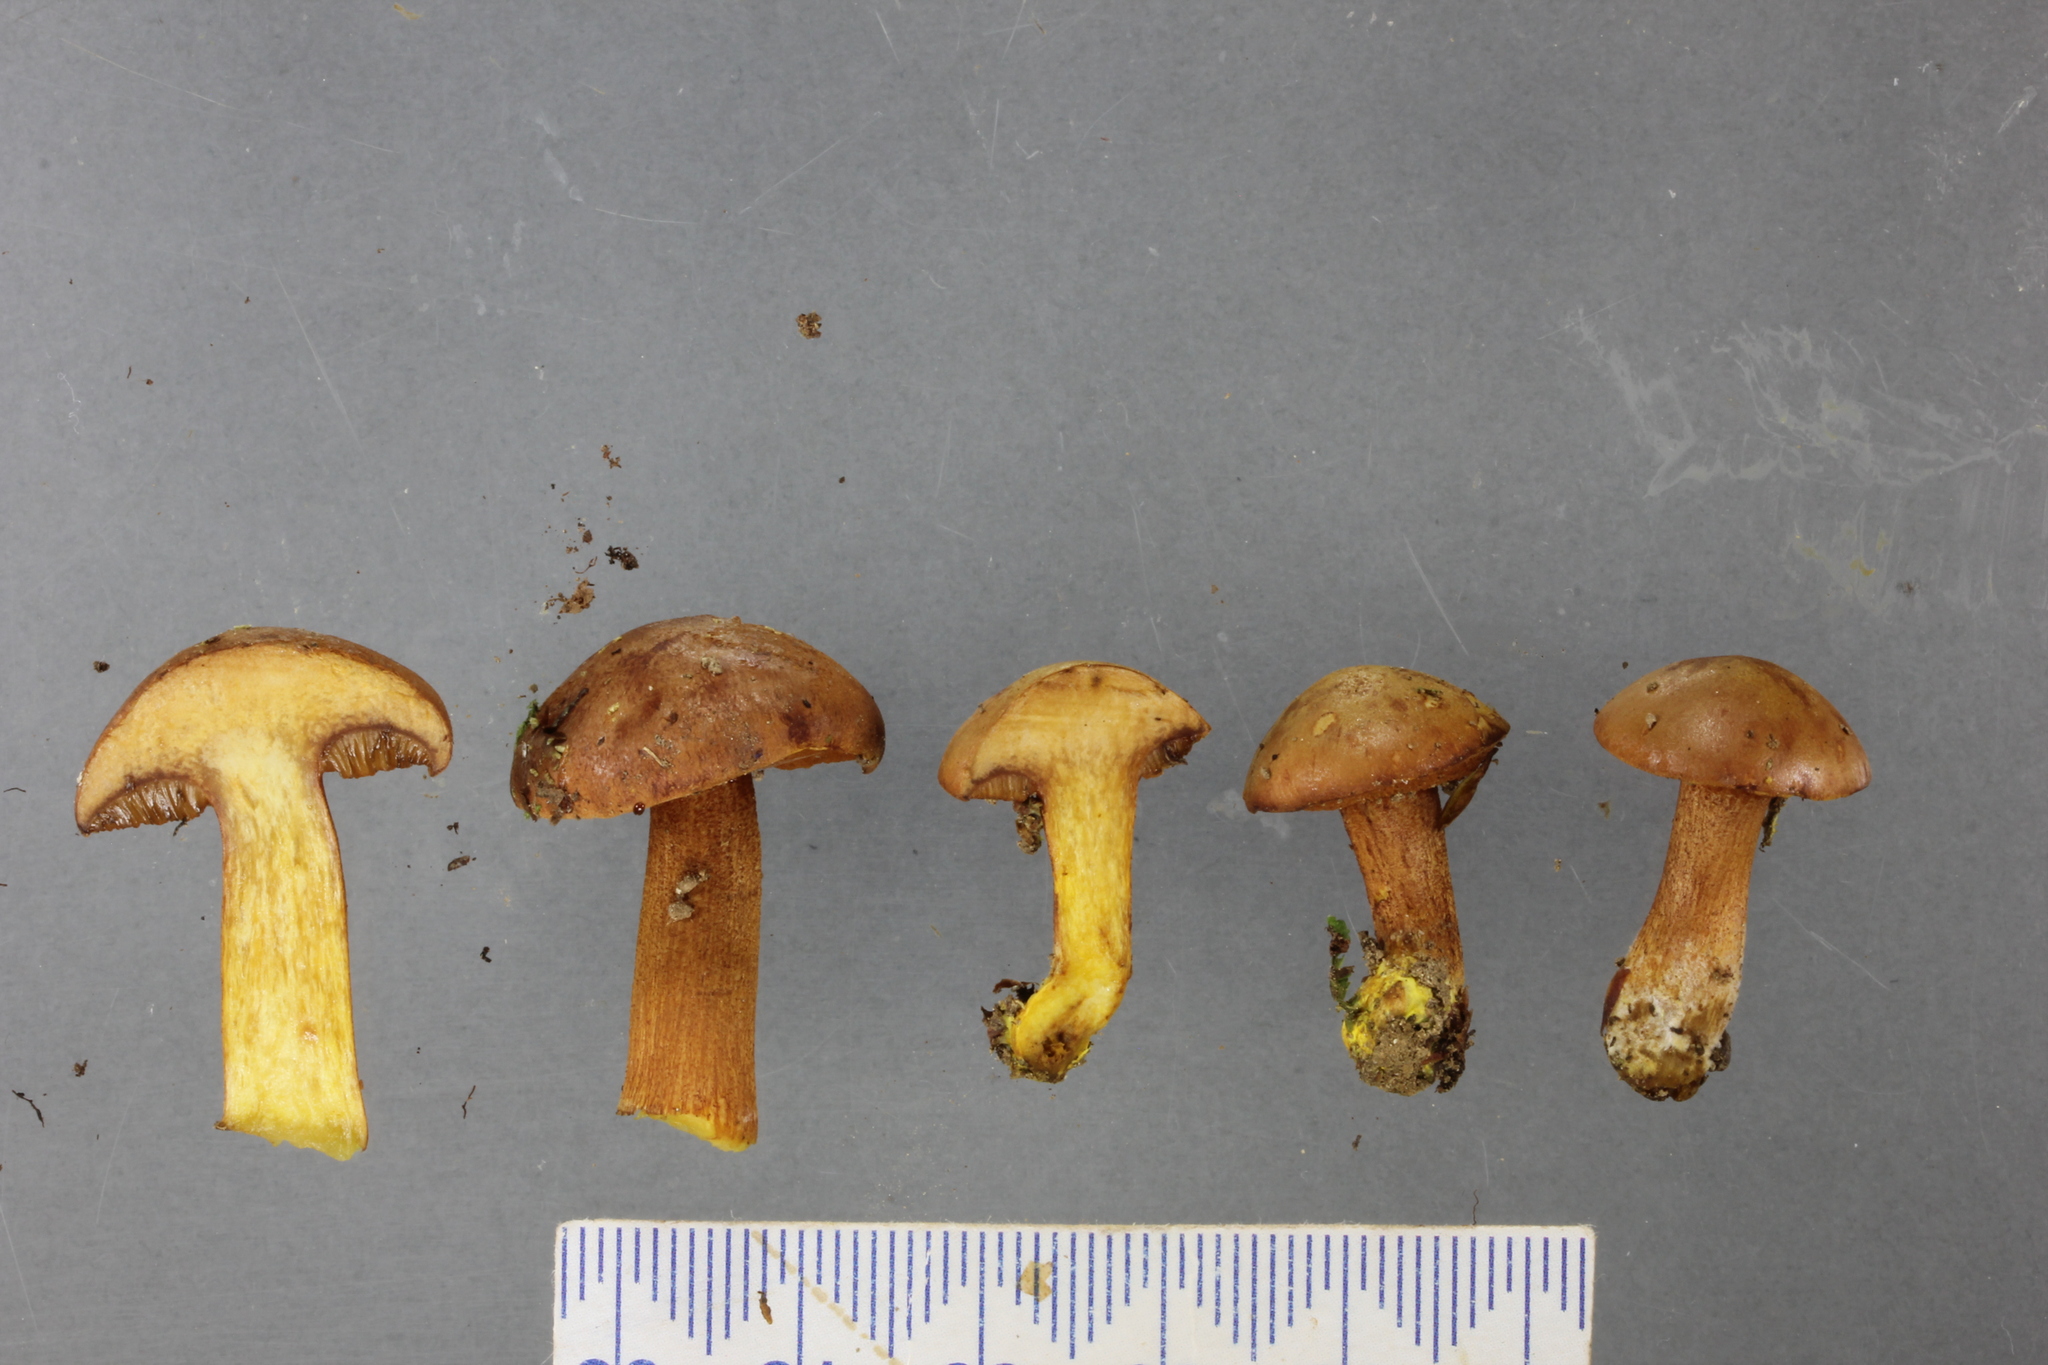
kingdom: Fungi
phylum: Basidiomycota
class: Agaricomycetes
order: Boletales
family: Boletaceae
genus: Chalciporus
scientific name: Chalciporus piperatus
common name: Peppery bolete
